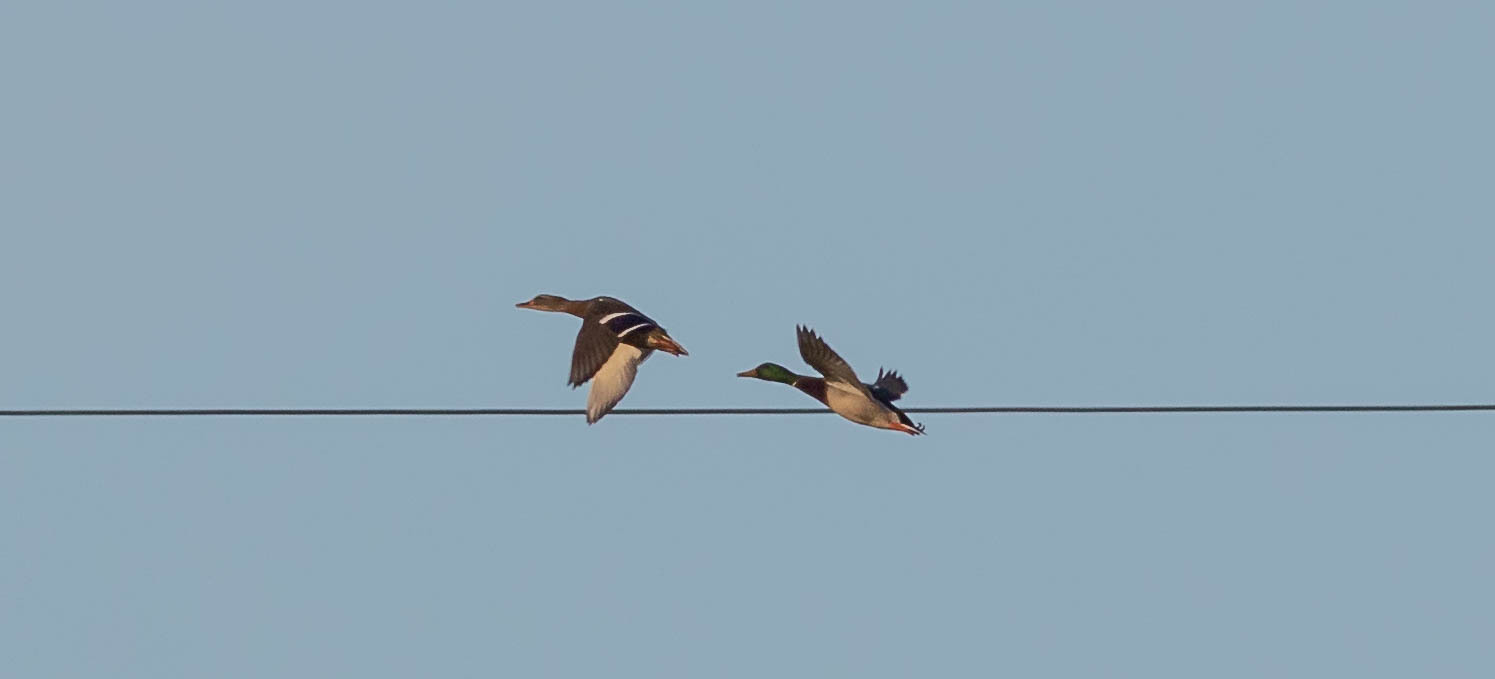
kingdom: Animalia
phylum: Chordata
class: Aves
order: Anseriformes
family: Anatidae
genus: Anas
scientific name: Anas platyrhynchos
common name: Mallard
